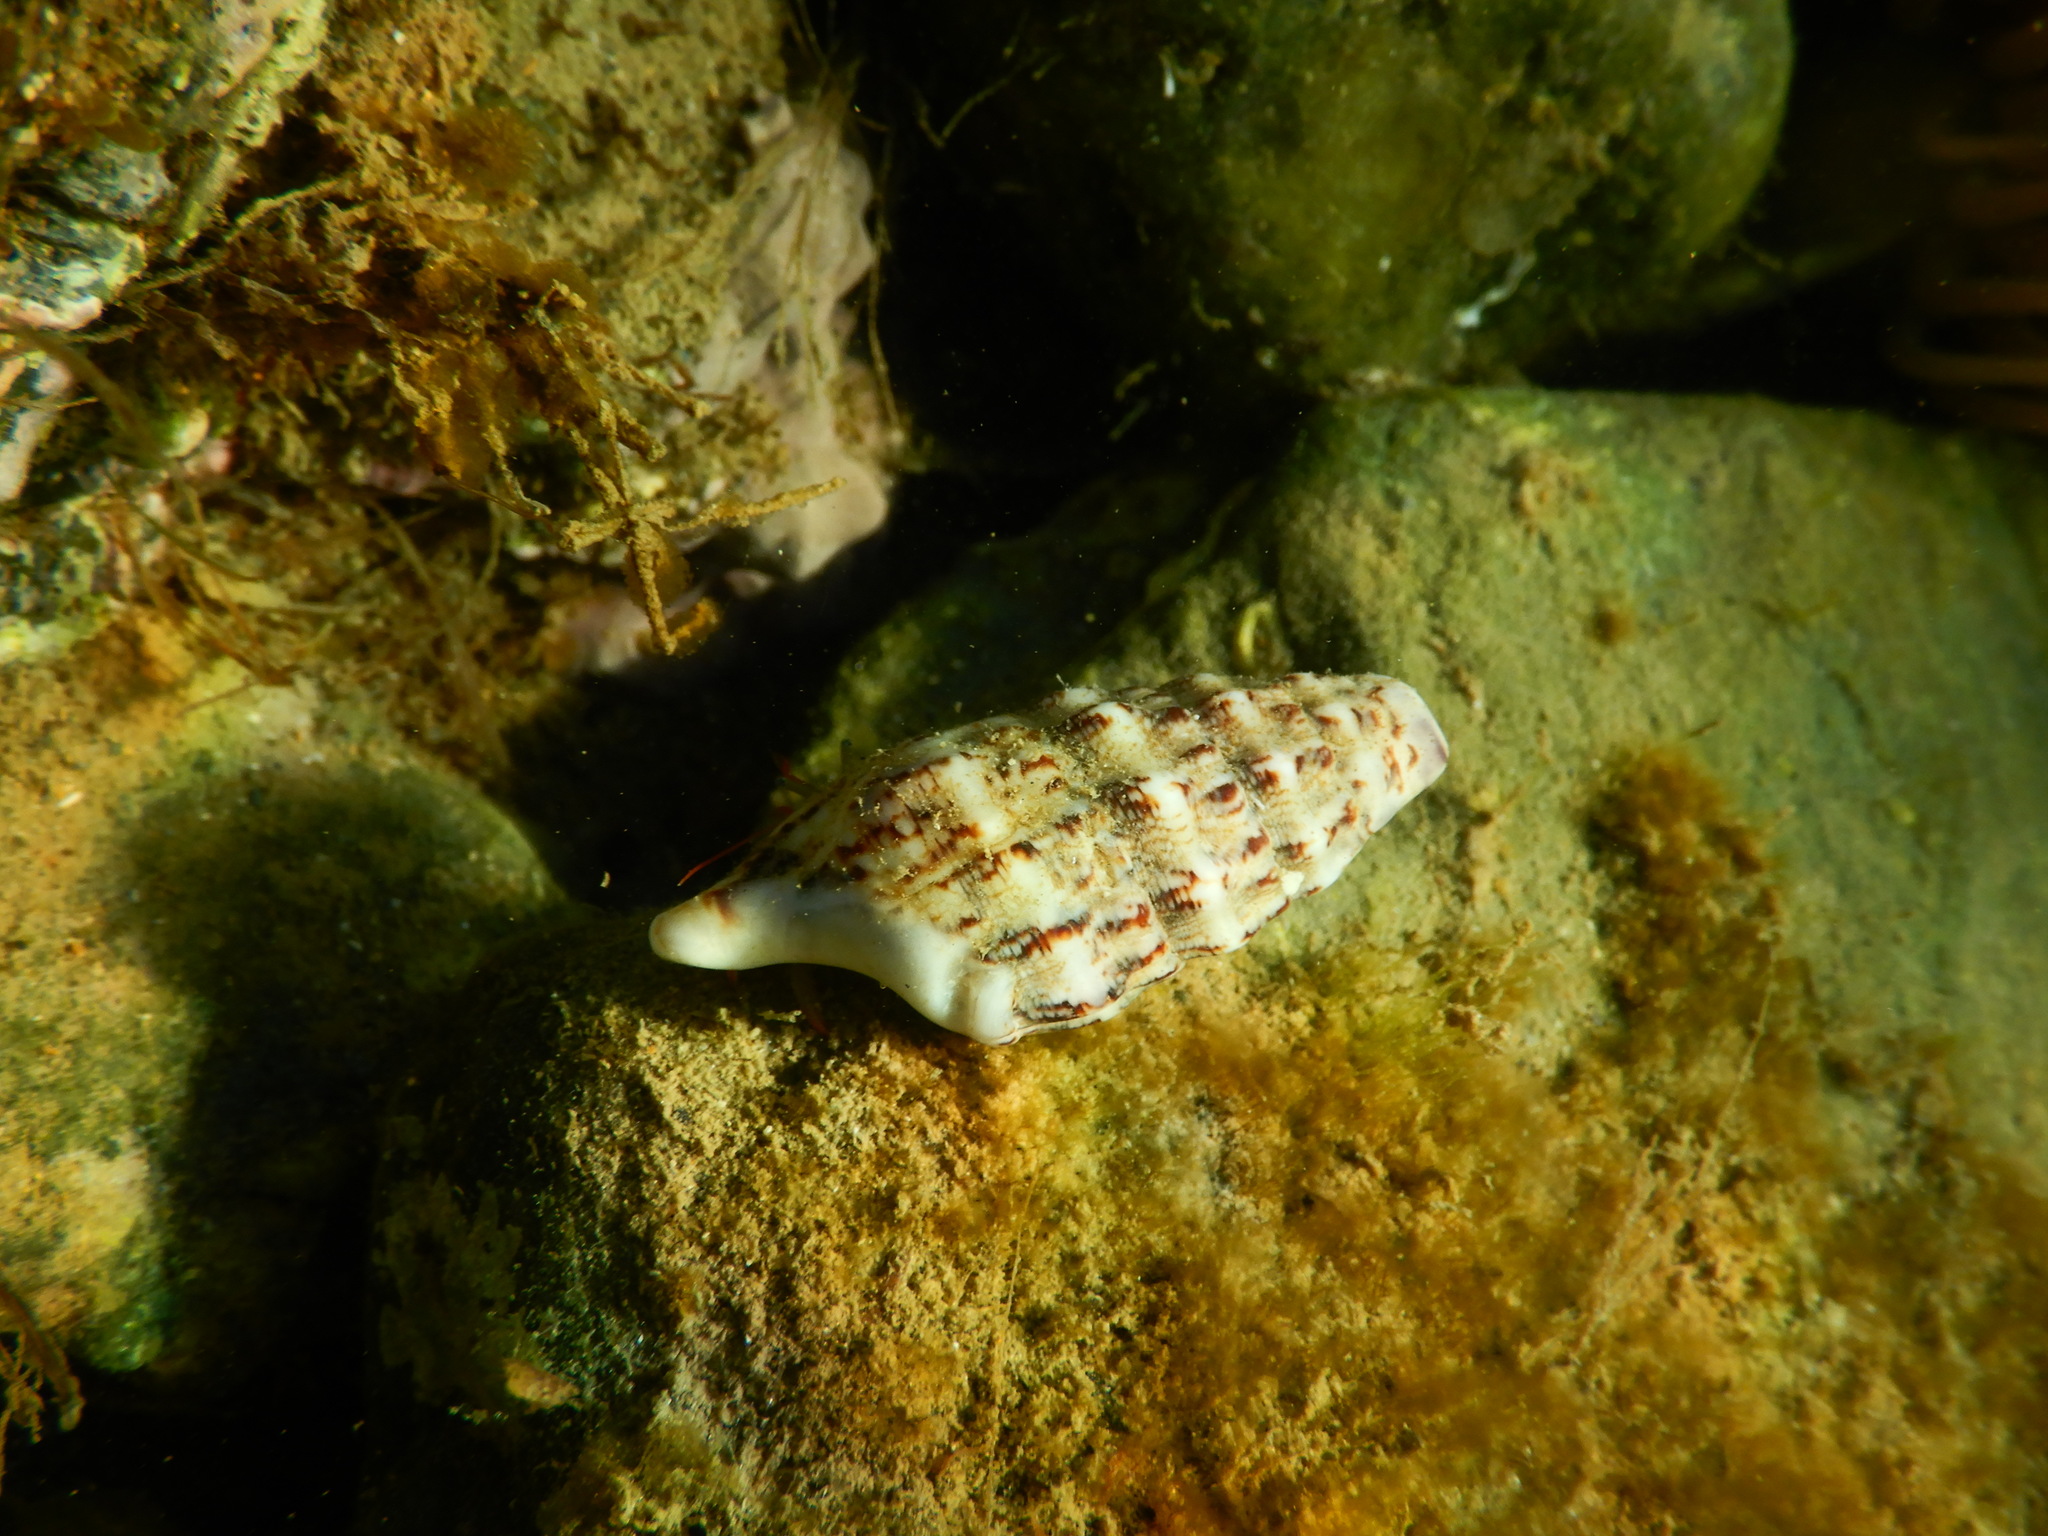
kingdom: Animalia
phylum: Mollusca
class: Gastropoda
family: Cerithiidae
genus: Cerithium
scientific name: Cerithium vulgatum
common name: European cerith
